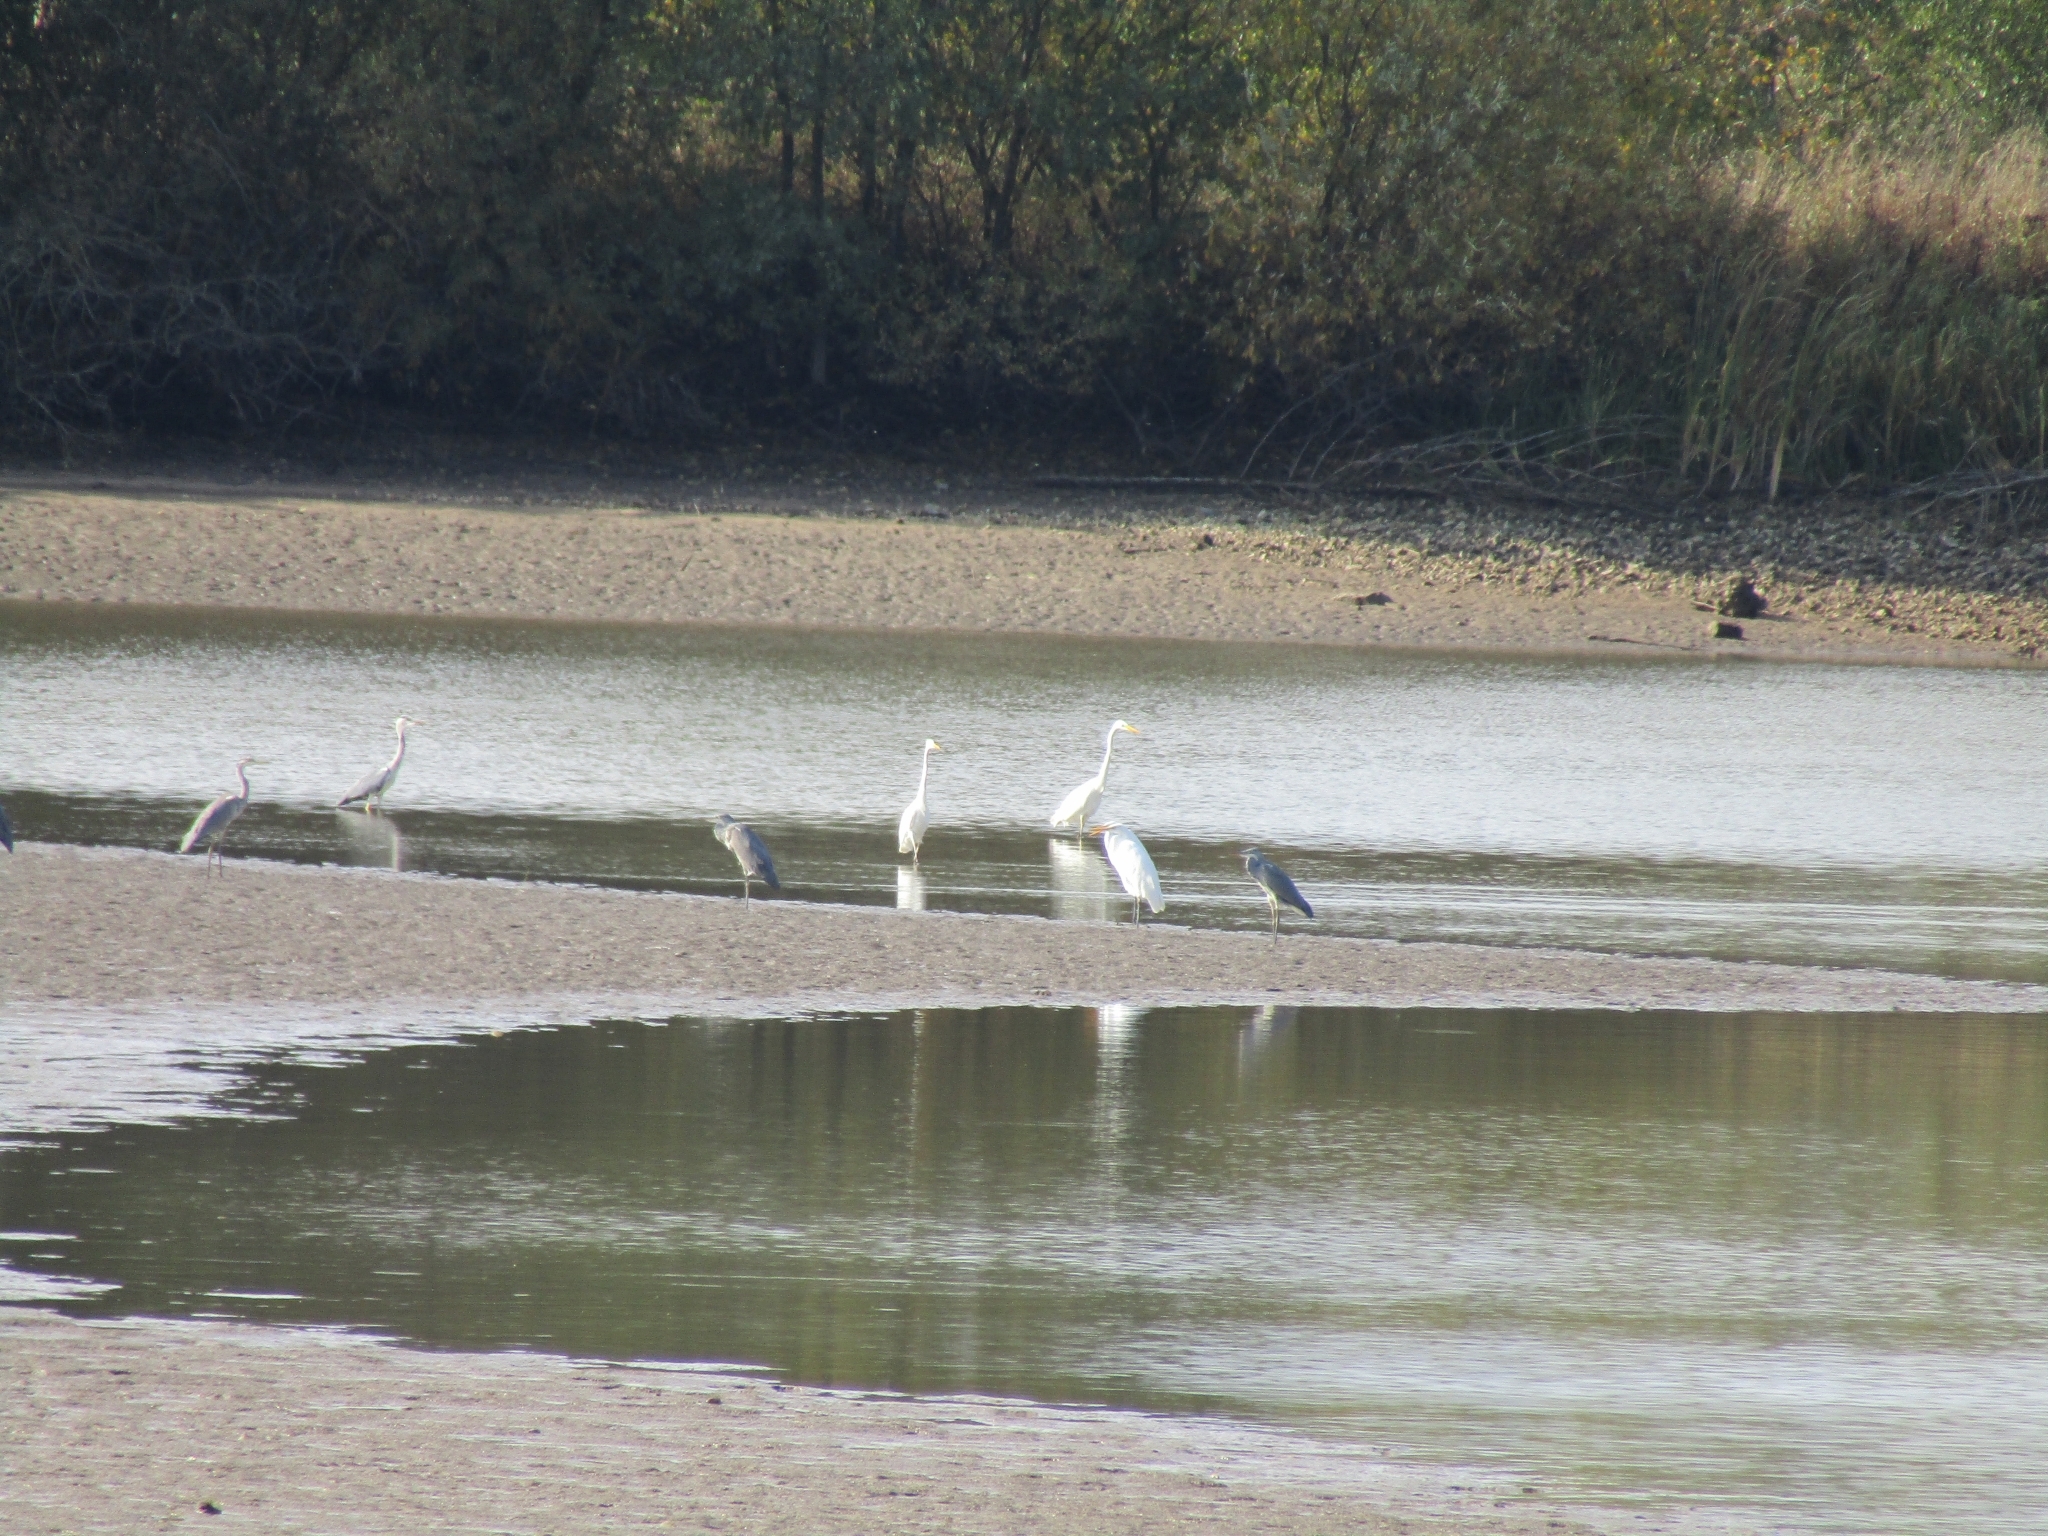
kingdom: Animalia
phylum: Chordata
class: Aves
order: Pelecaniformes
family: Ardeidae
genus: Ardea
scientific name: Ardea alba
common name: Great egret
